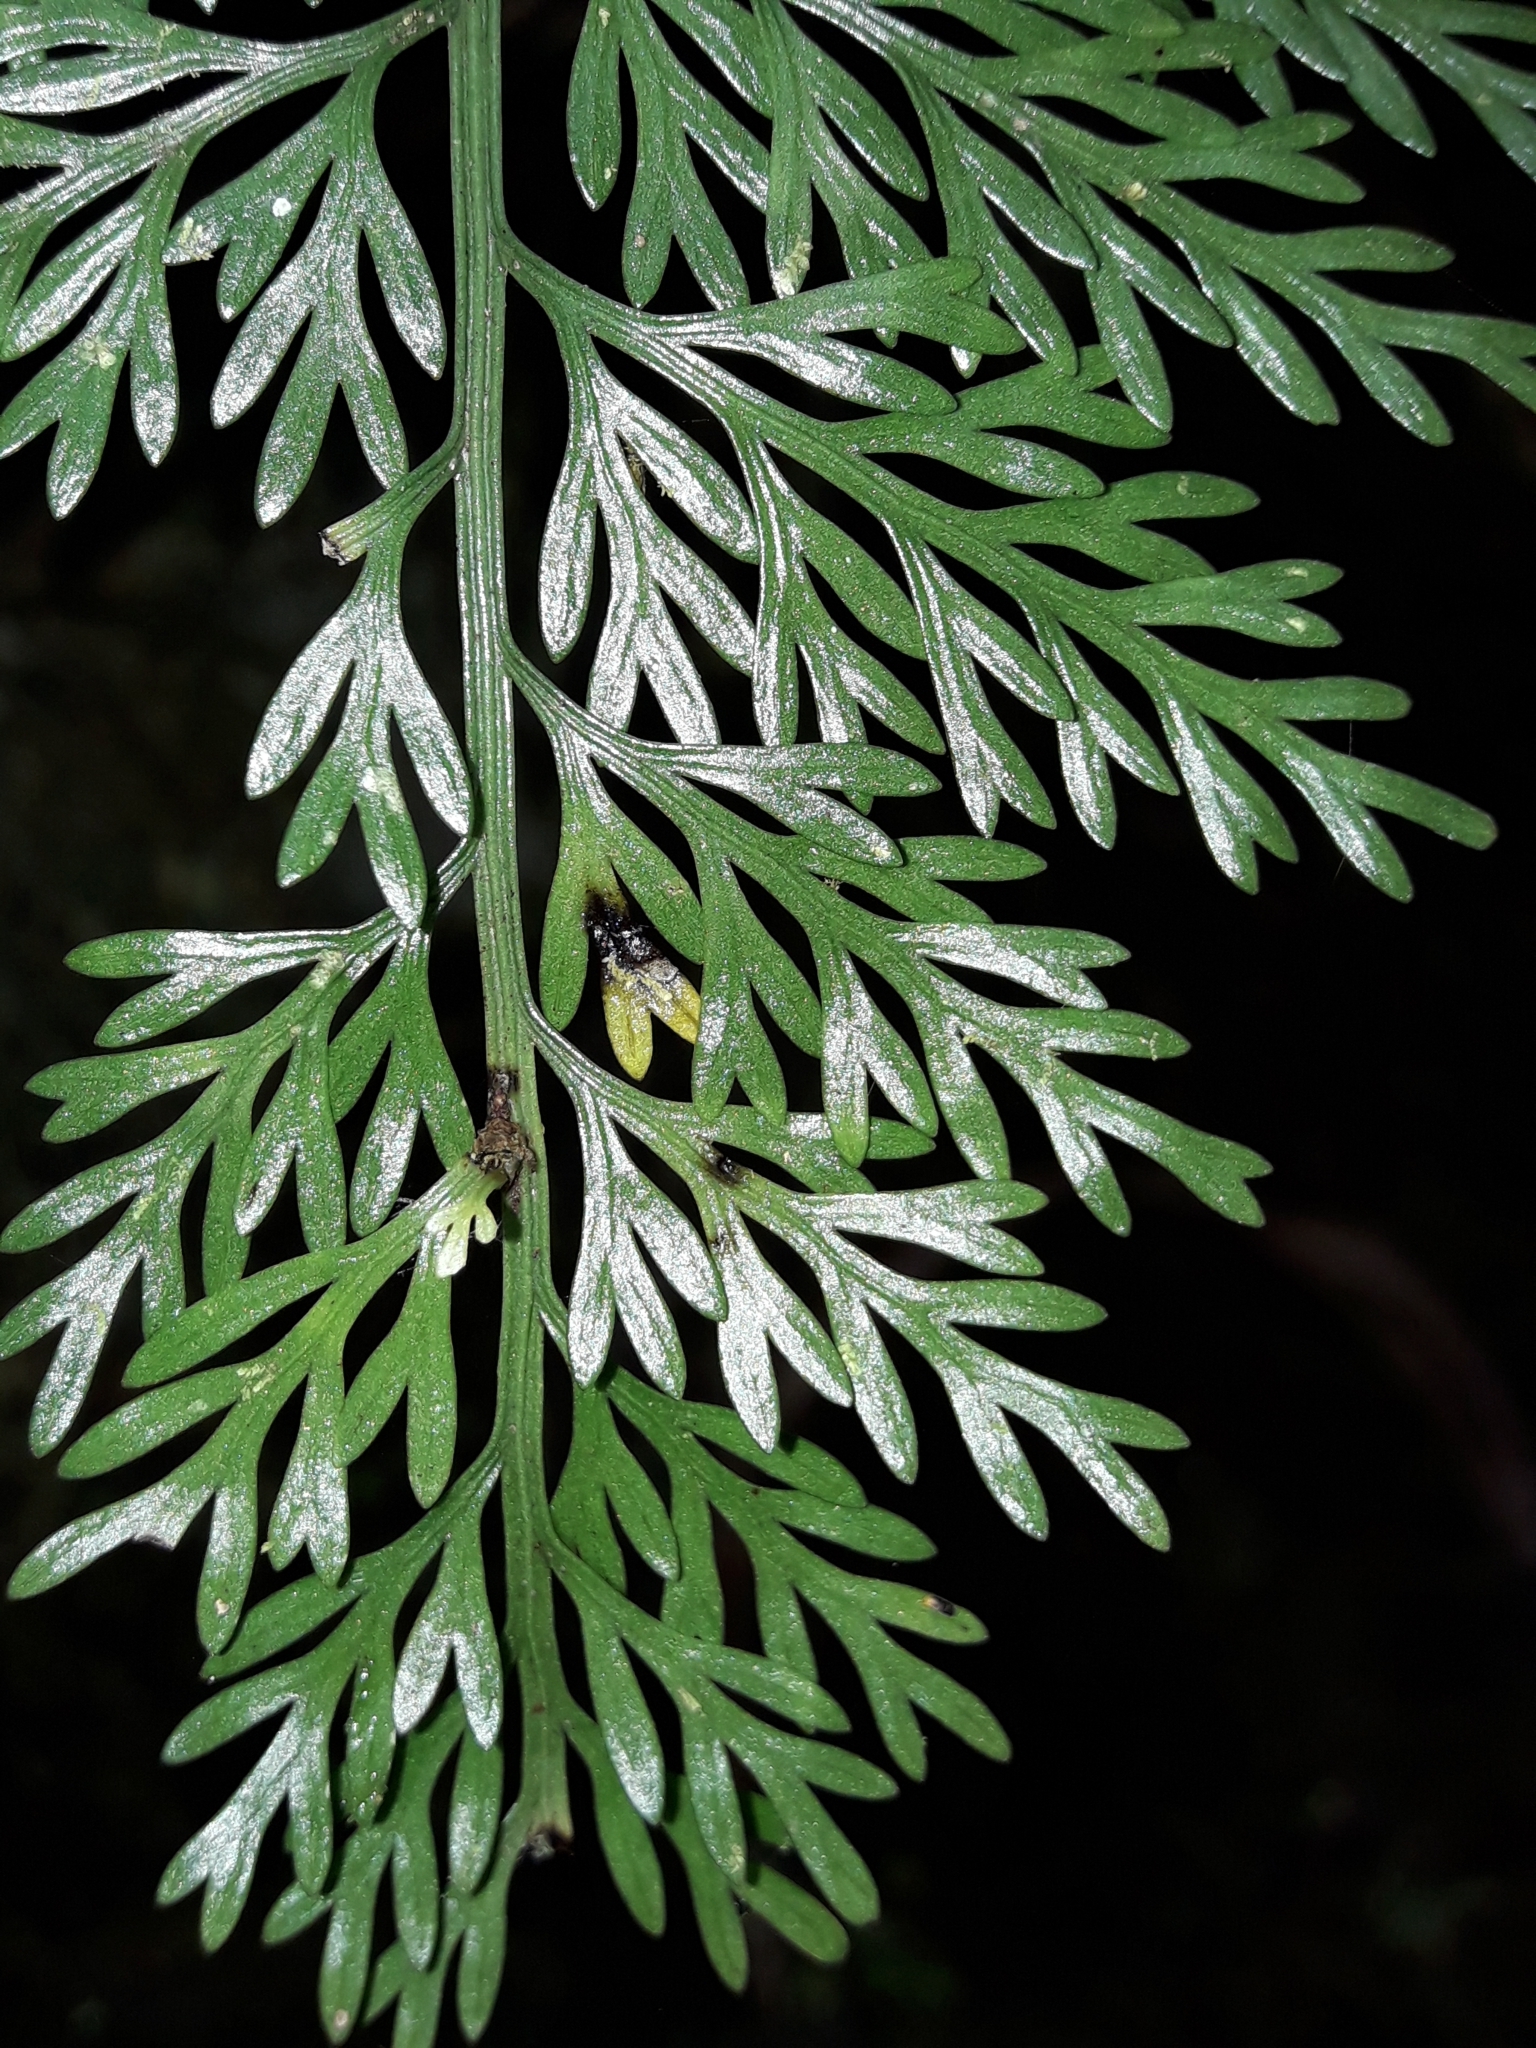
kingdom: Plantae
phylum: Tracheophyta
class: Polypodiopsida
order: Polypodiales
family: Aspleniaceae
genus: Asplenium
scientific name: Asplenium pseudobulbiferum
